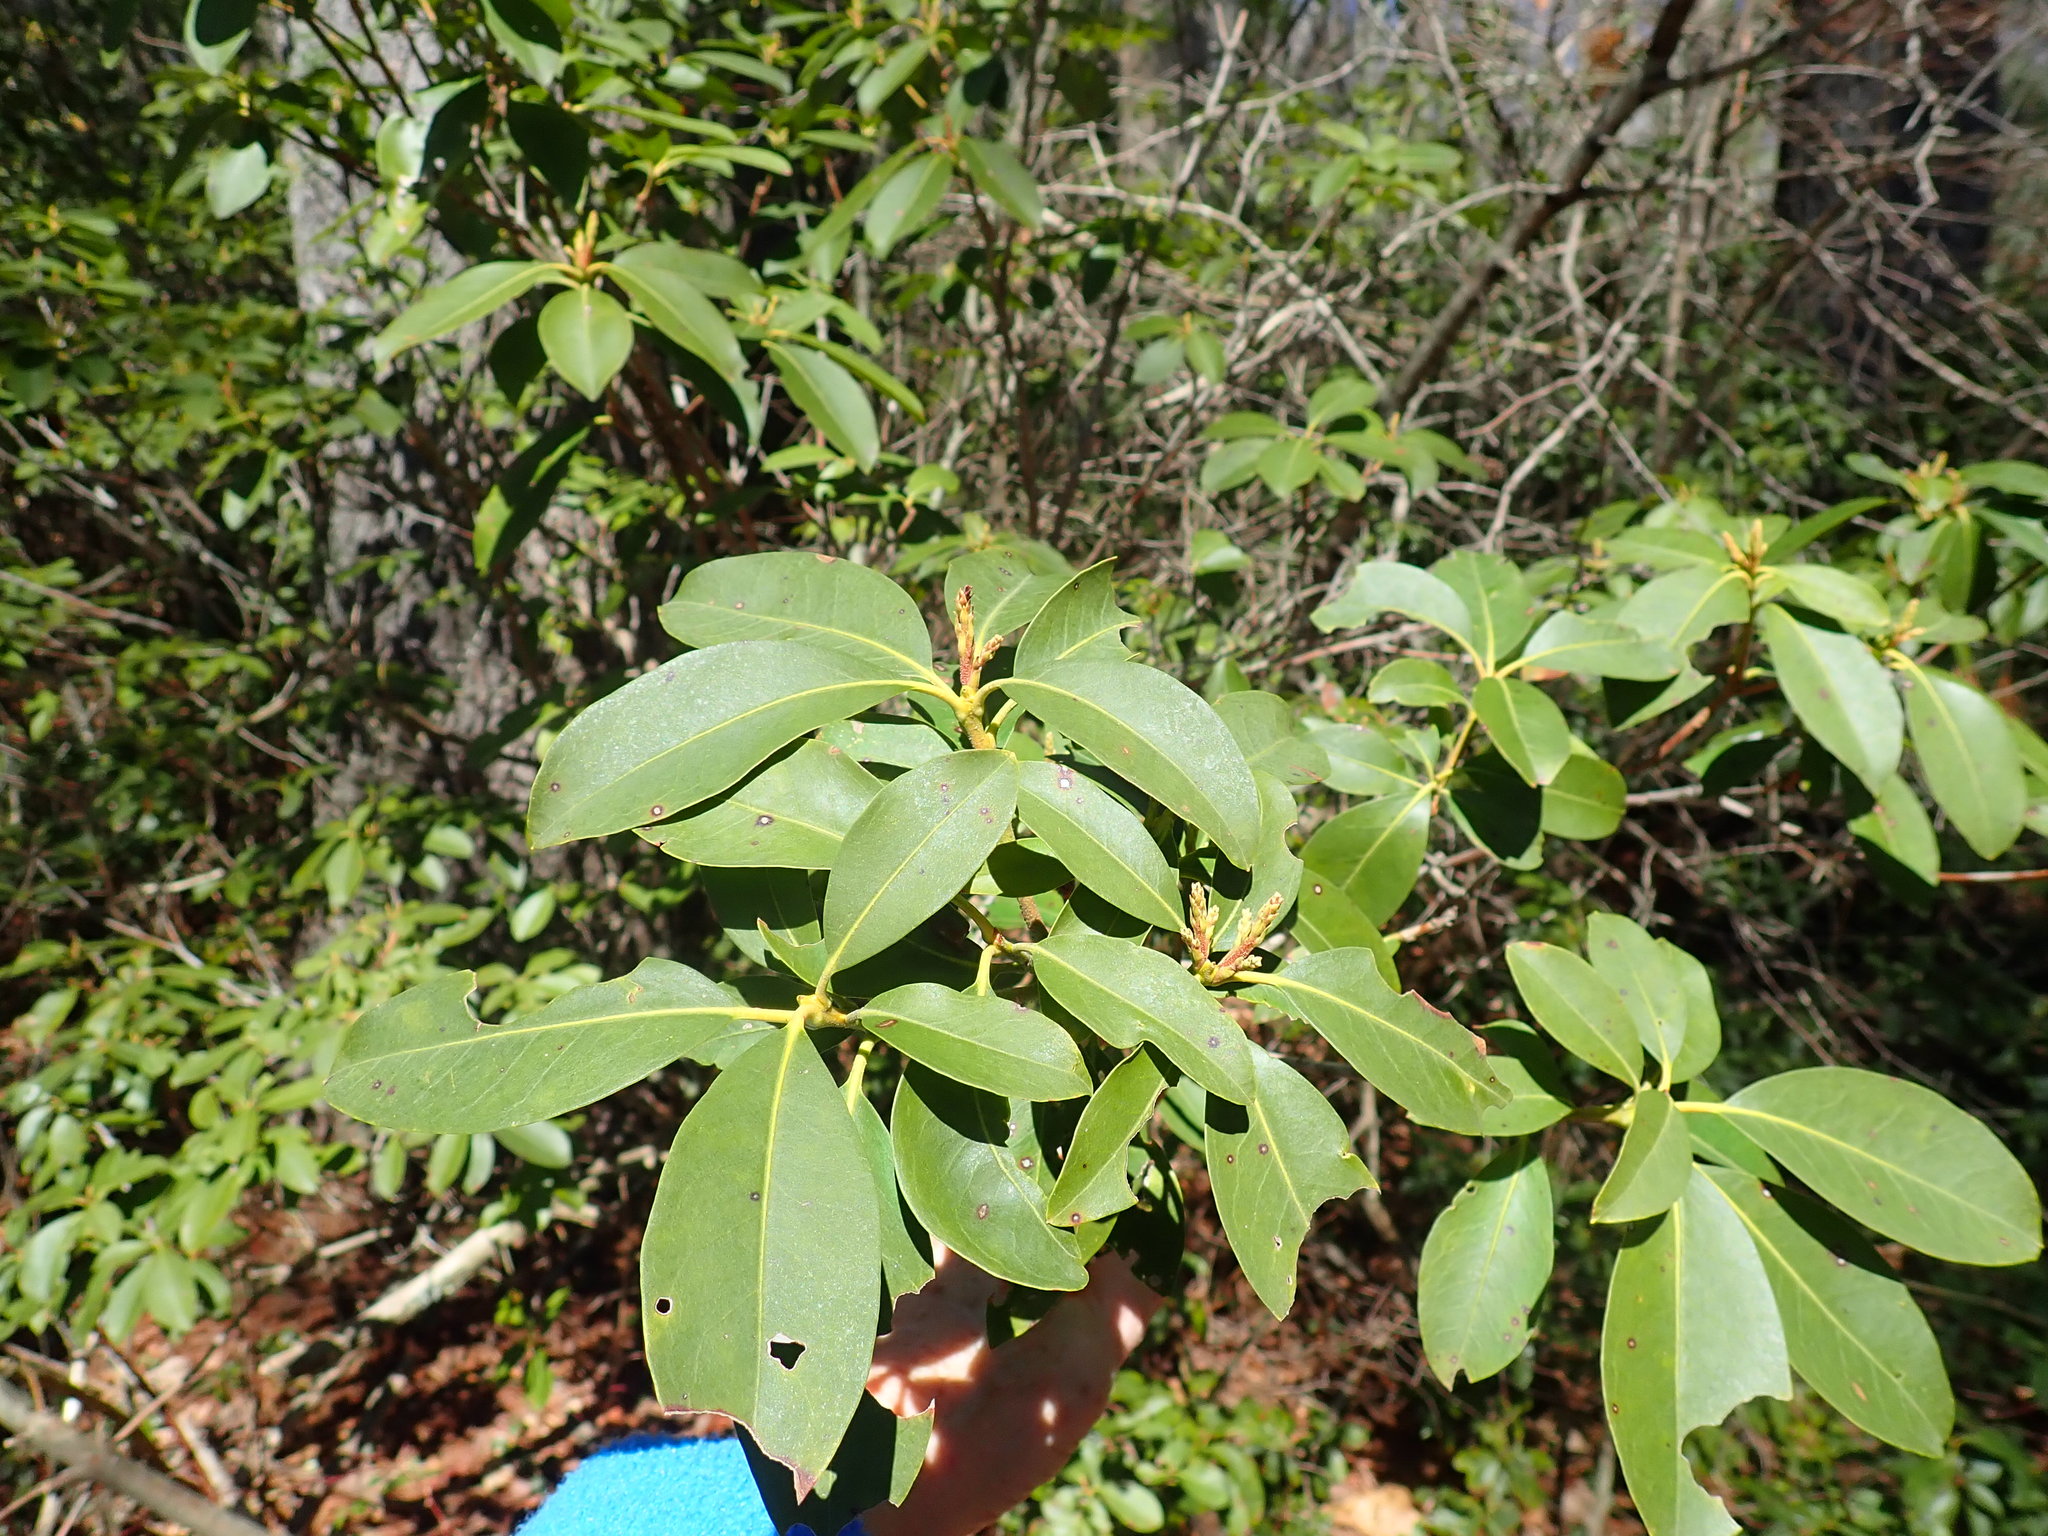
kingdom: Plantae
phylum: Tracheophyta
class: Magnoliopsida
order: Ericales
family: Ericaceae
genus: Kalmia
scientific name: Kalmia latifolia
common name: Mountain-laurel
